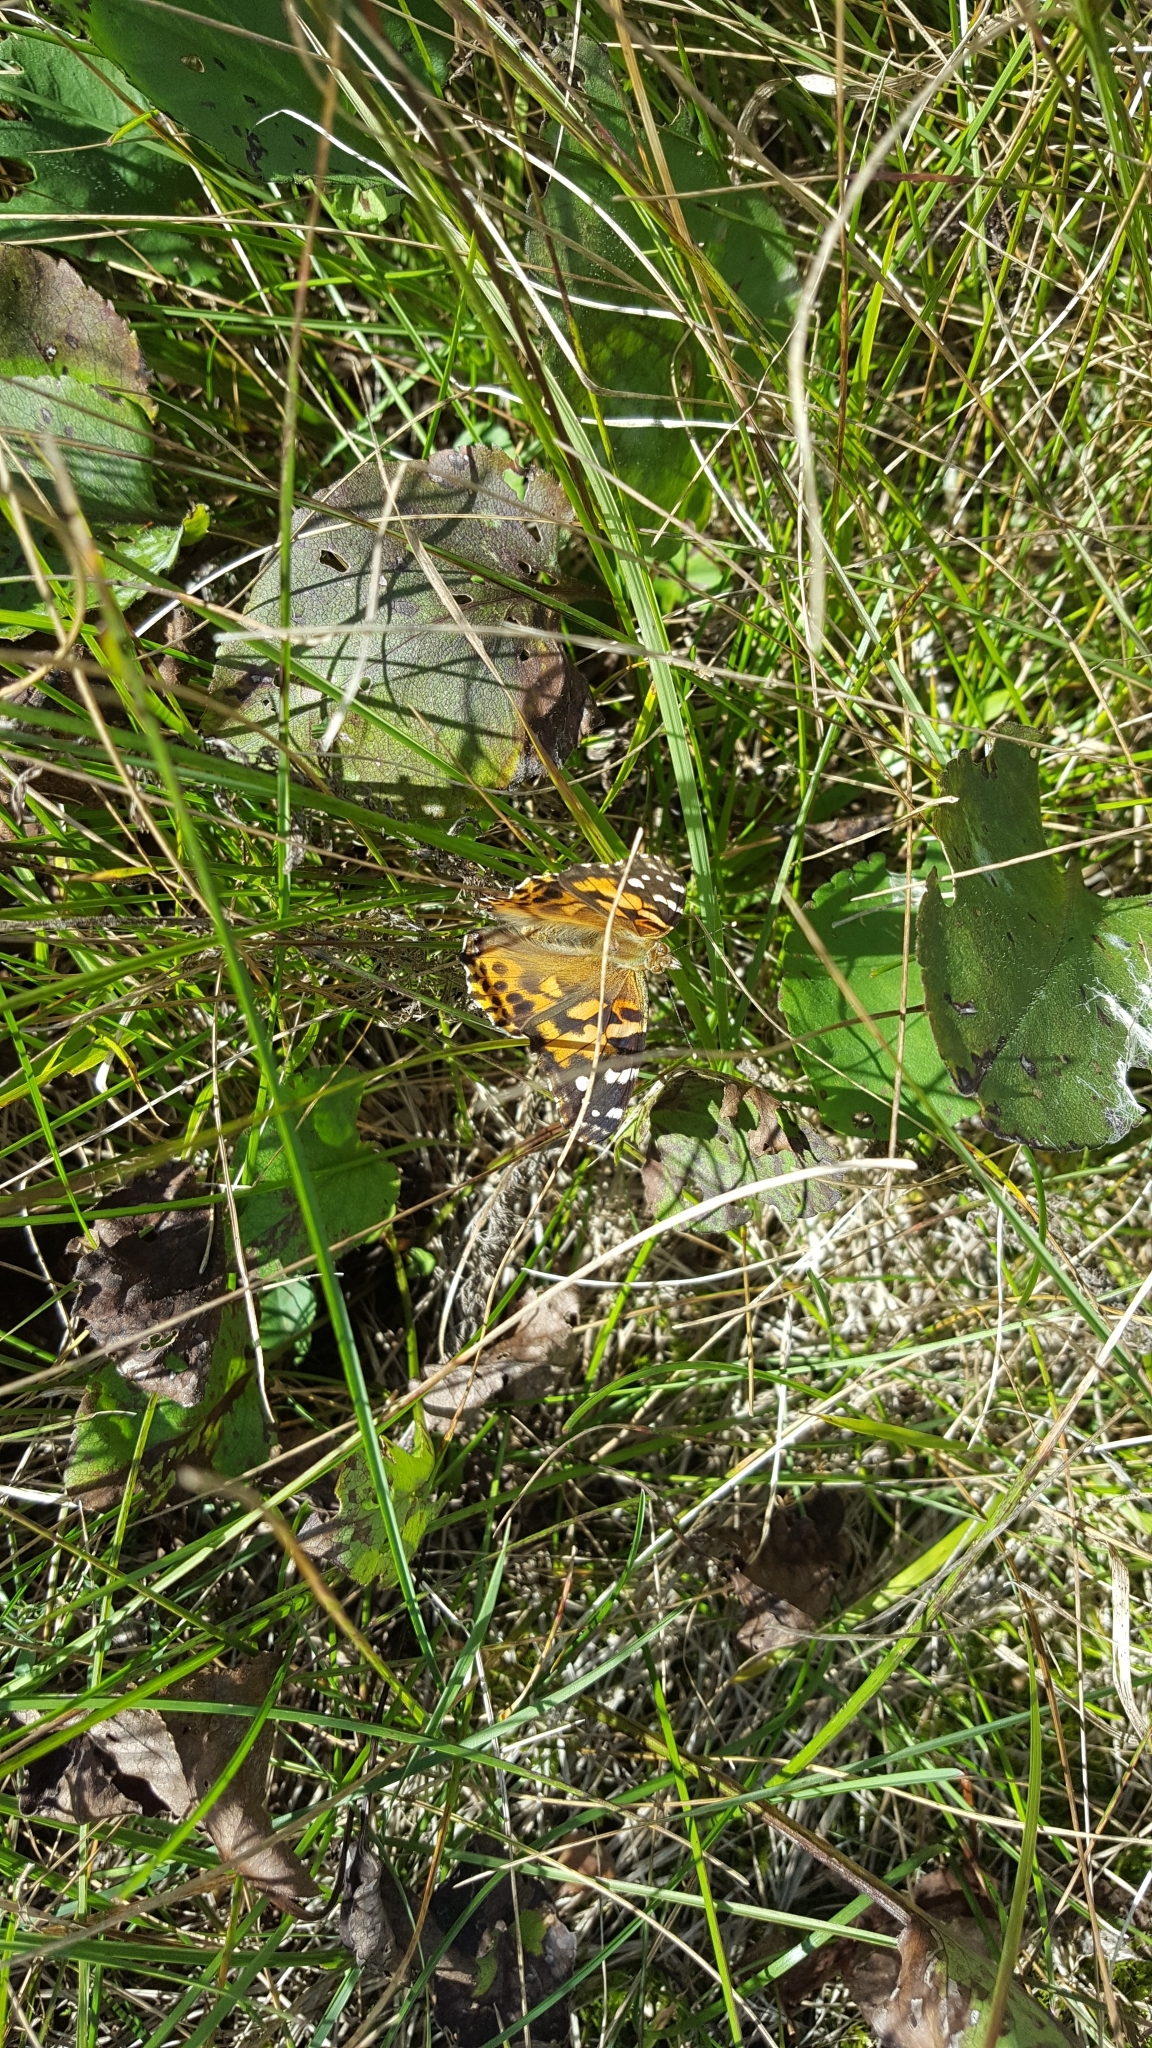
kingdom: Animalia
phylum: Arthropoda
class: Insecta
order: Lepidoptera
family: Nymphalidae
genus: Vanessa
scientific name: Vanessa cardui
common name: Painted lady
